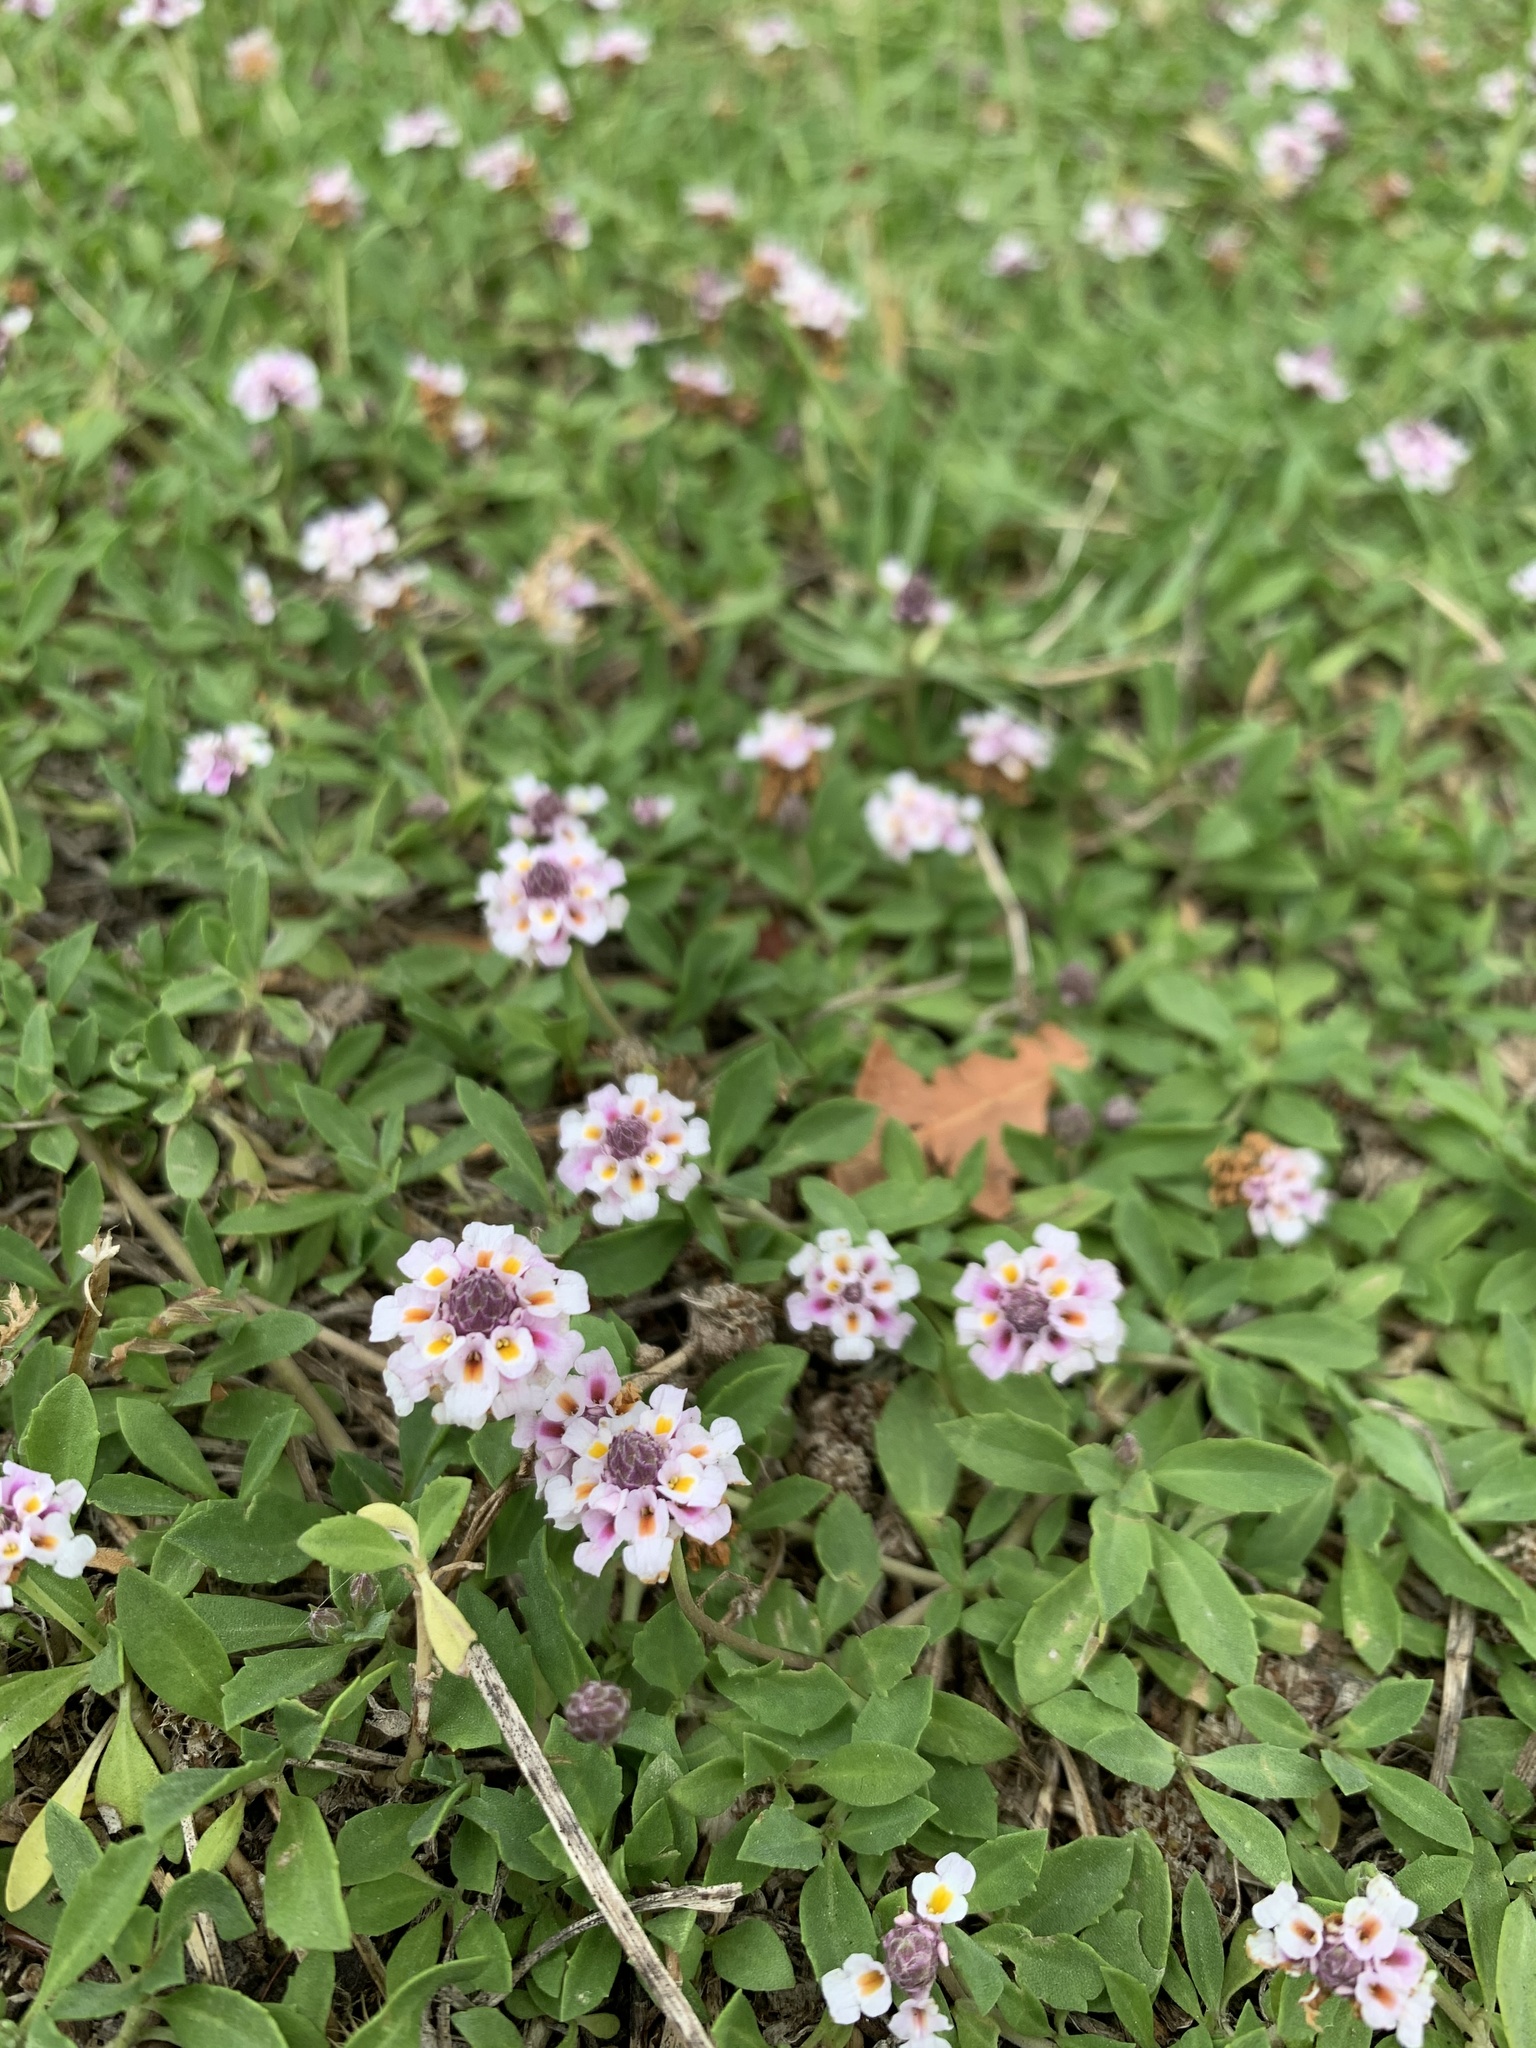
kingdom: Plantae
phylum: Tracheophyta
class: Magnoliopsida
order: Lamiales
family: Verbenaceae
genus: Phyla
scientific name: Phyla nodiflora
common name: Frogfruit
